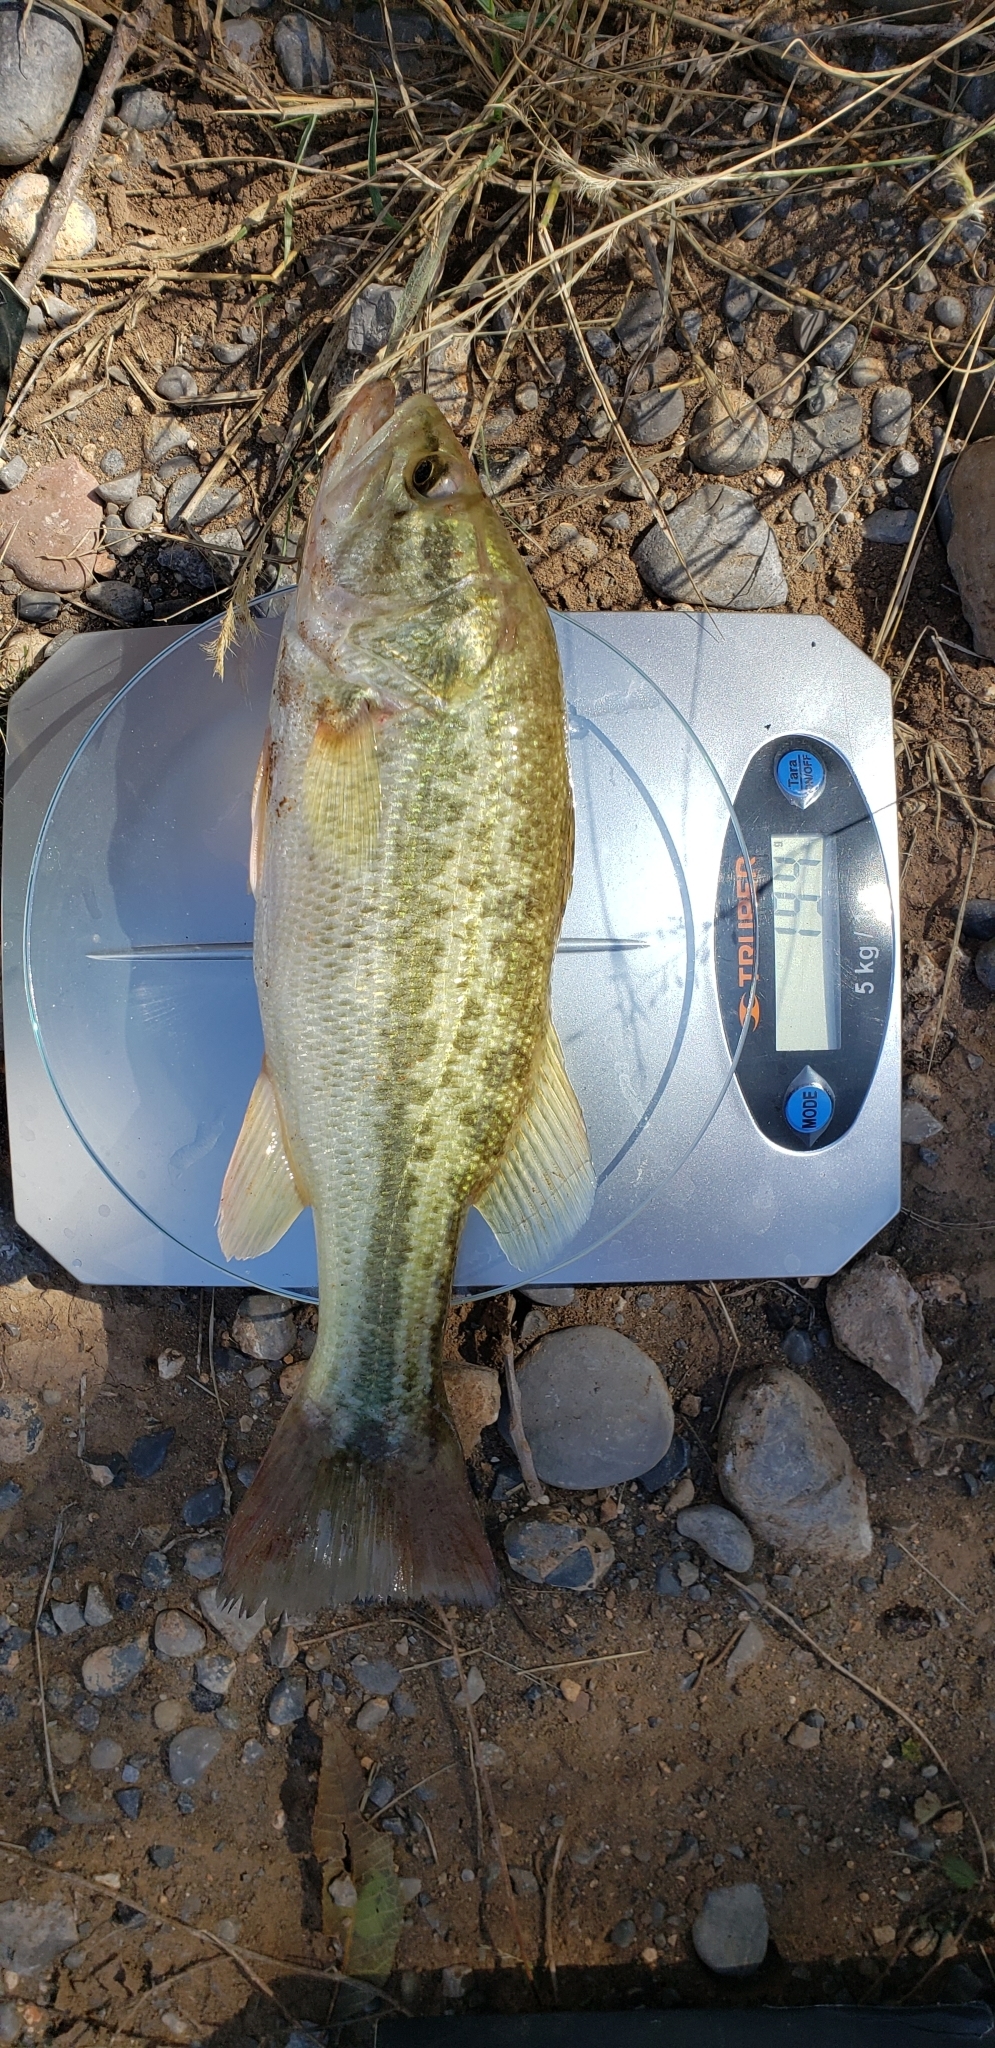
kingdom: Animalia
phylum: Chordata
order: Perciformes
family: Centrarchidae
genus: Micropterus
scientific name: Micropterus
